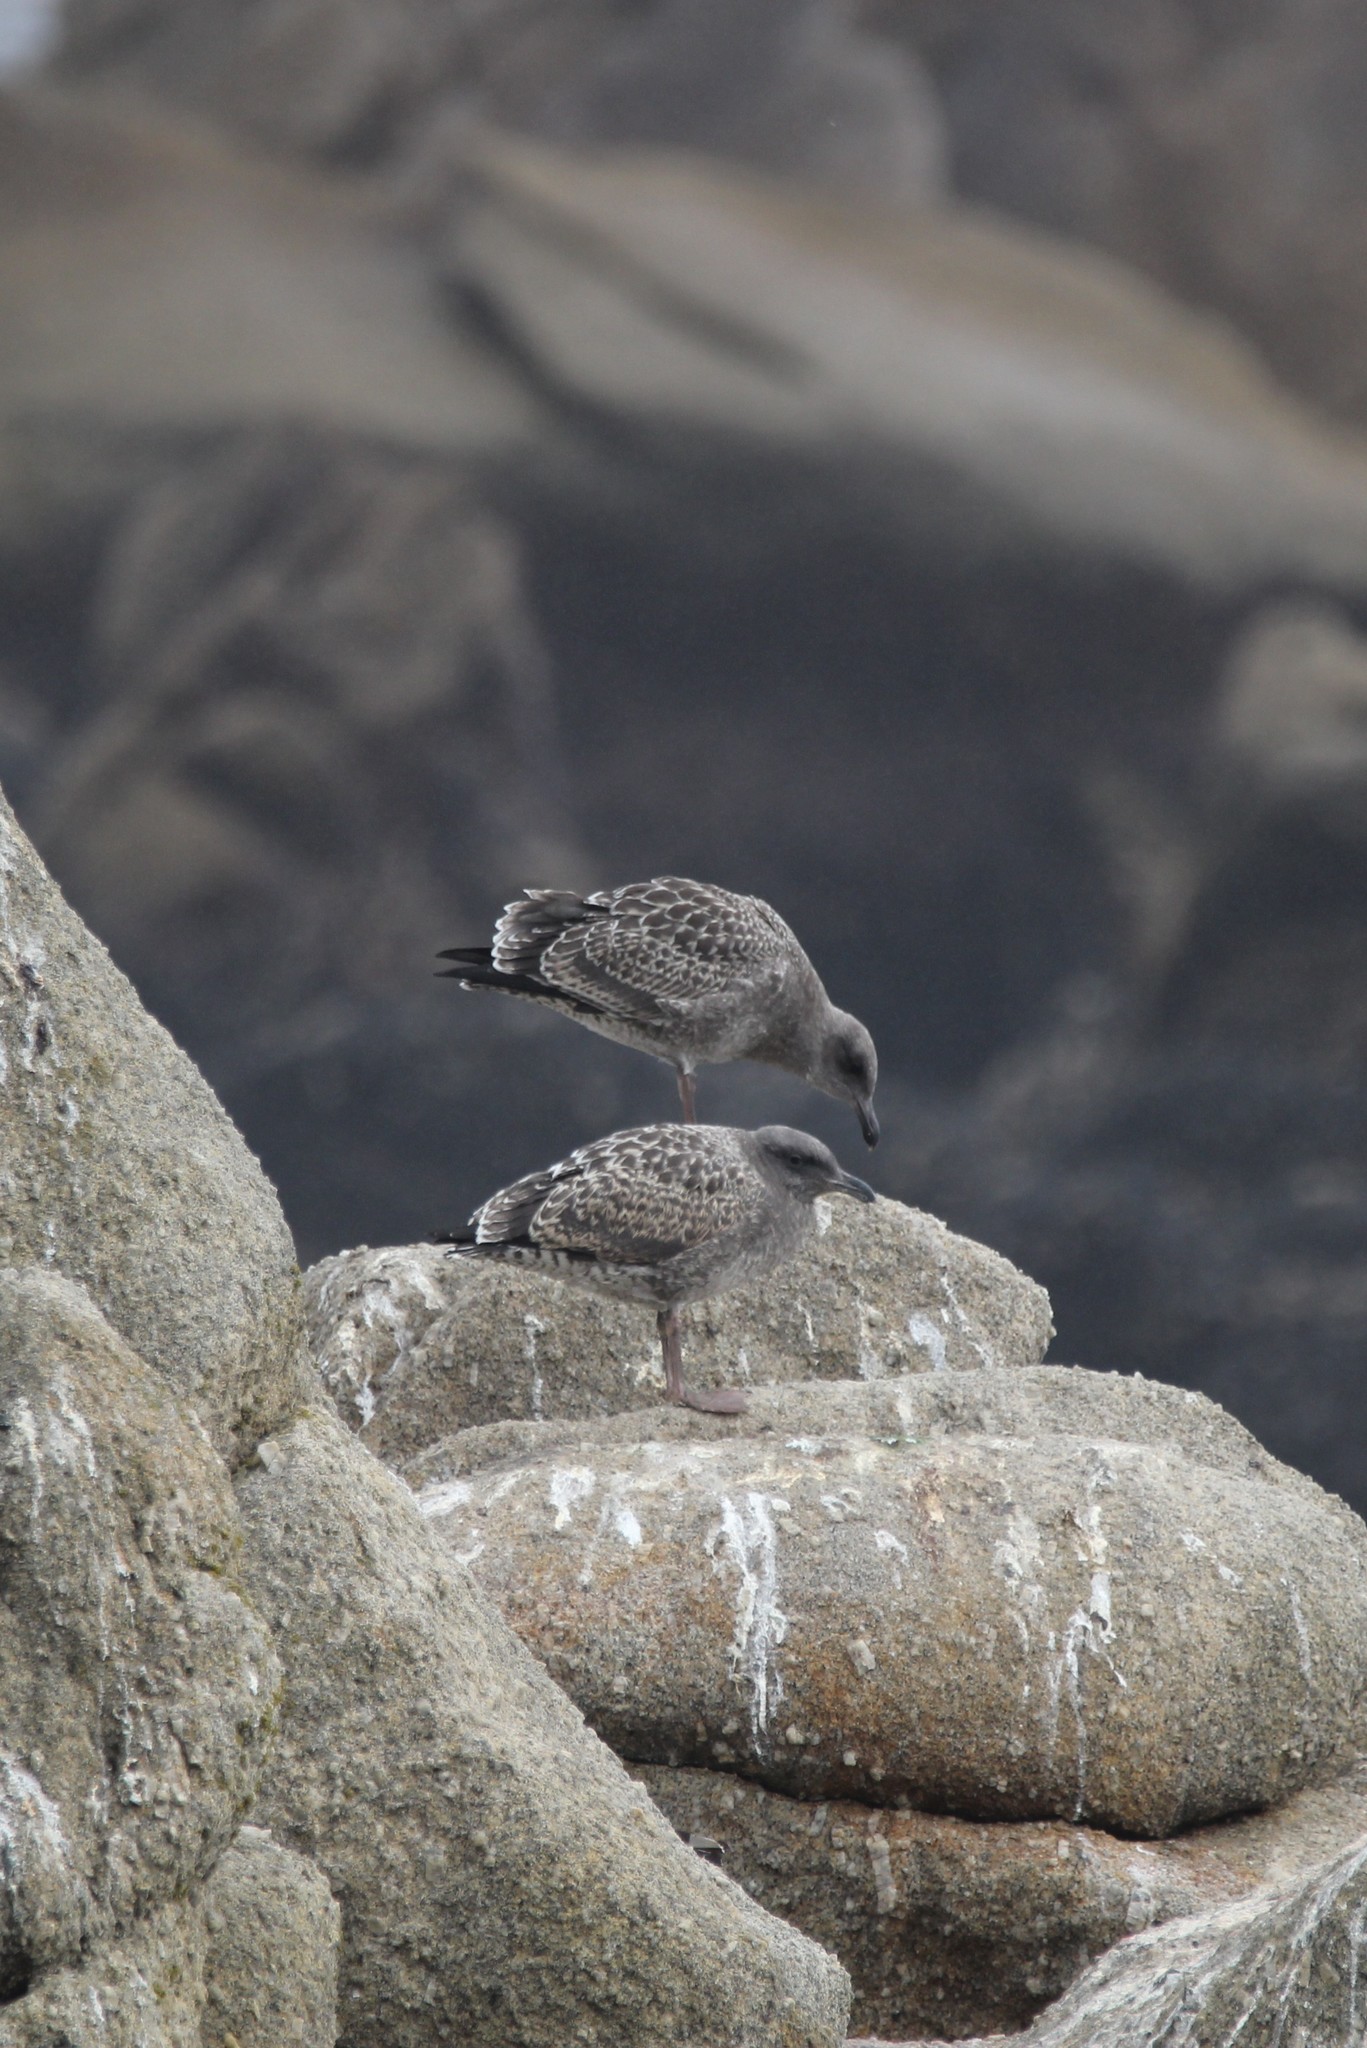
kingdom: Animalia
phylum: Chordata
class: Aves
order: Charadriiformes
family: Laridae
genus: Larus
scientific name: Larus occidentalis
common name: Western gull
